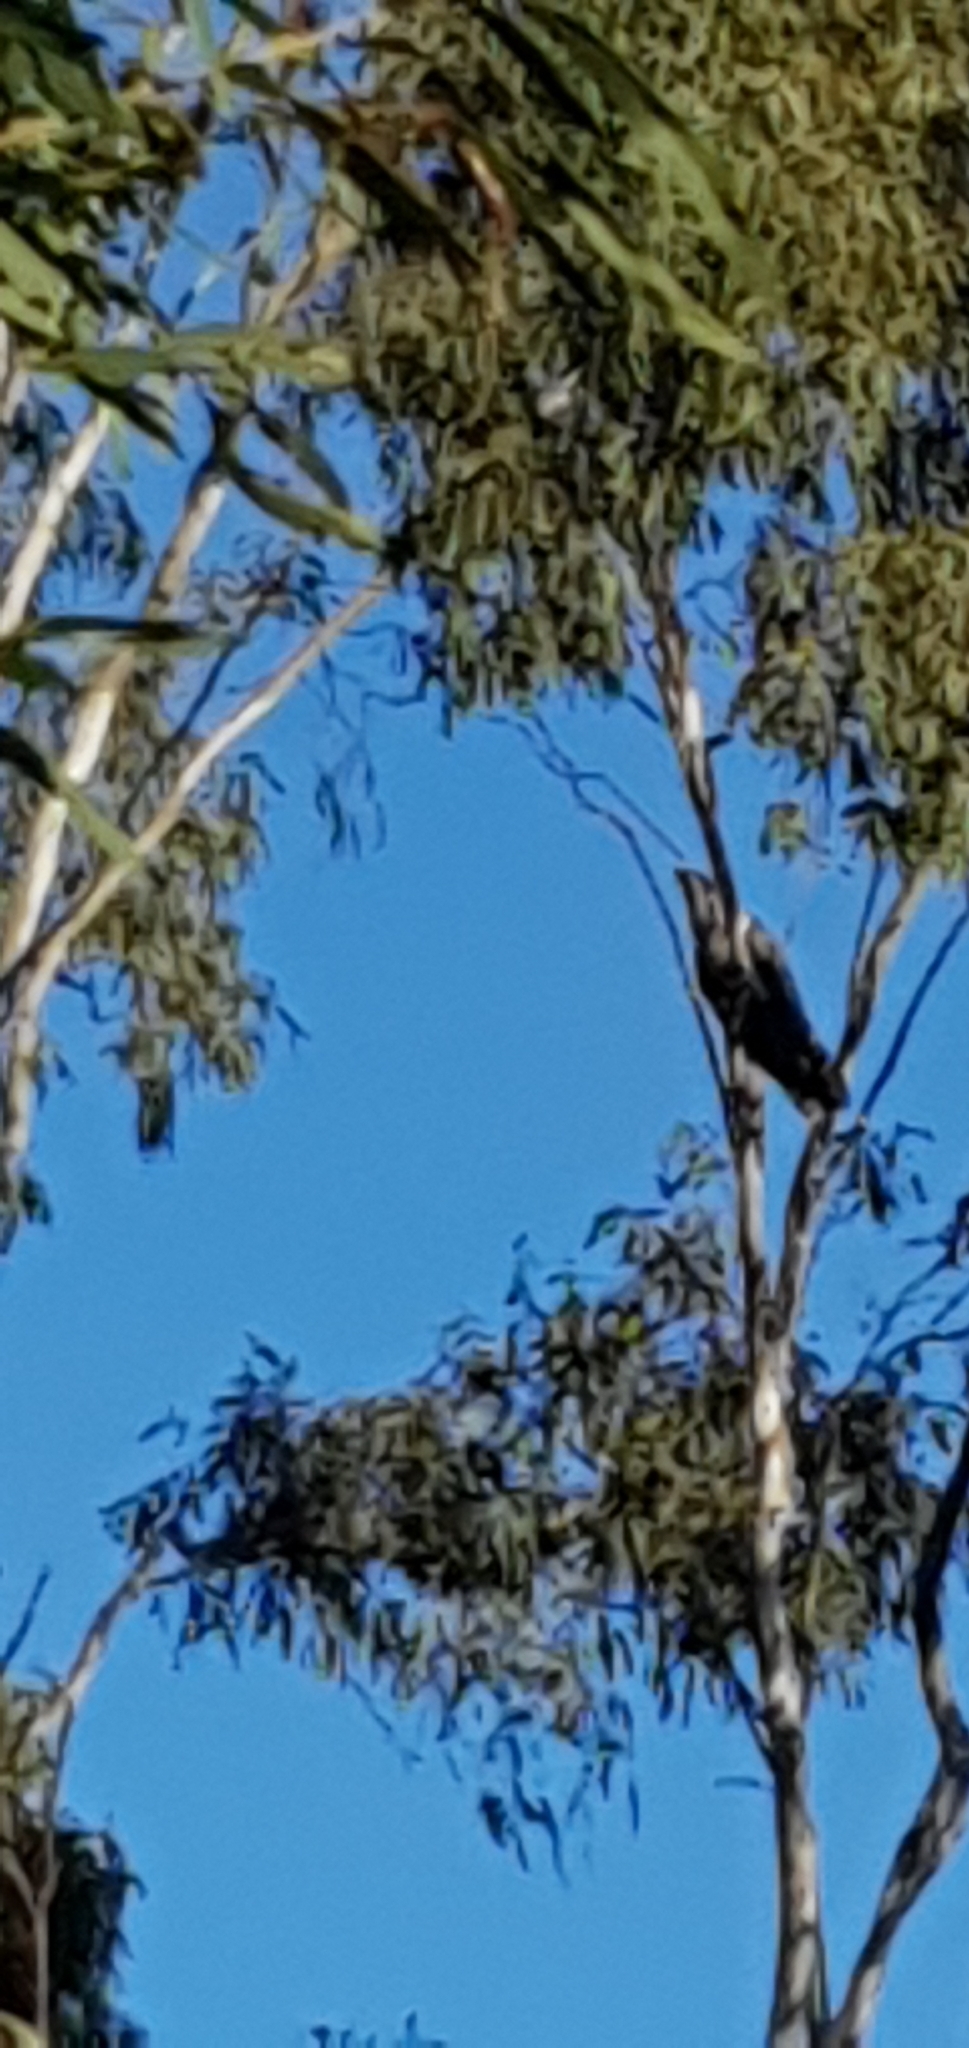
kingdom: Animalia
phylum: Chordata
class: Aves
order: Cuculiformes
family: Cuculidae
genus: Scythrops
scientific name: Scythrops novaehollandiae
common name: Channel-billed cuckoo
